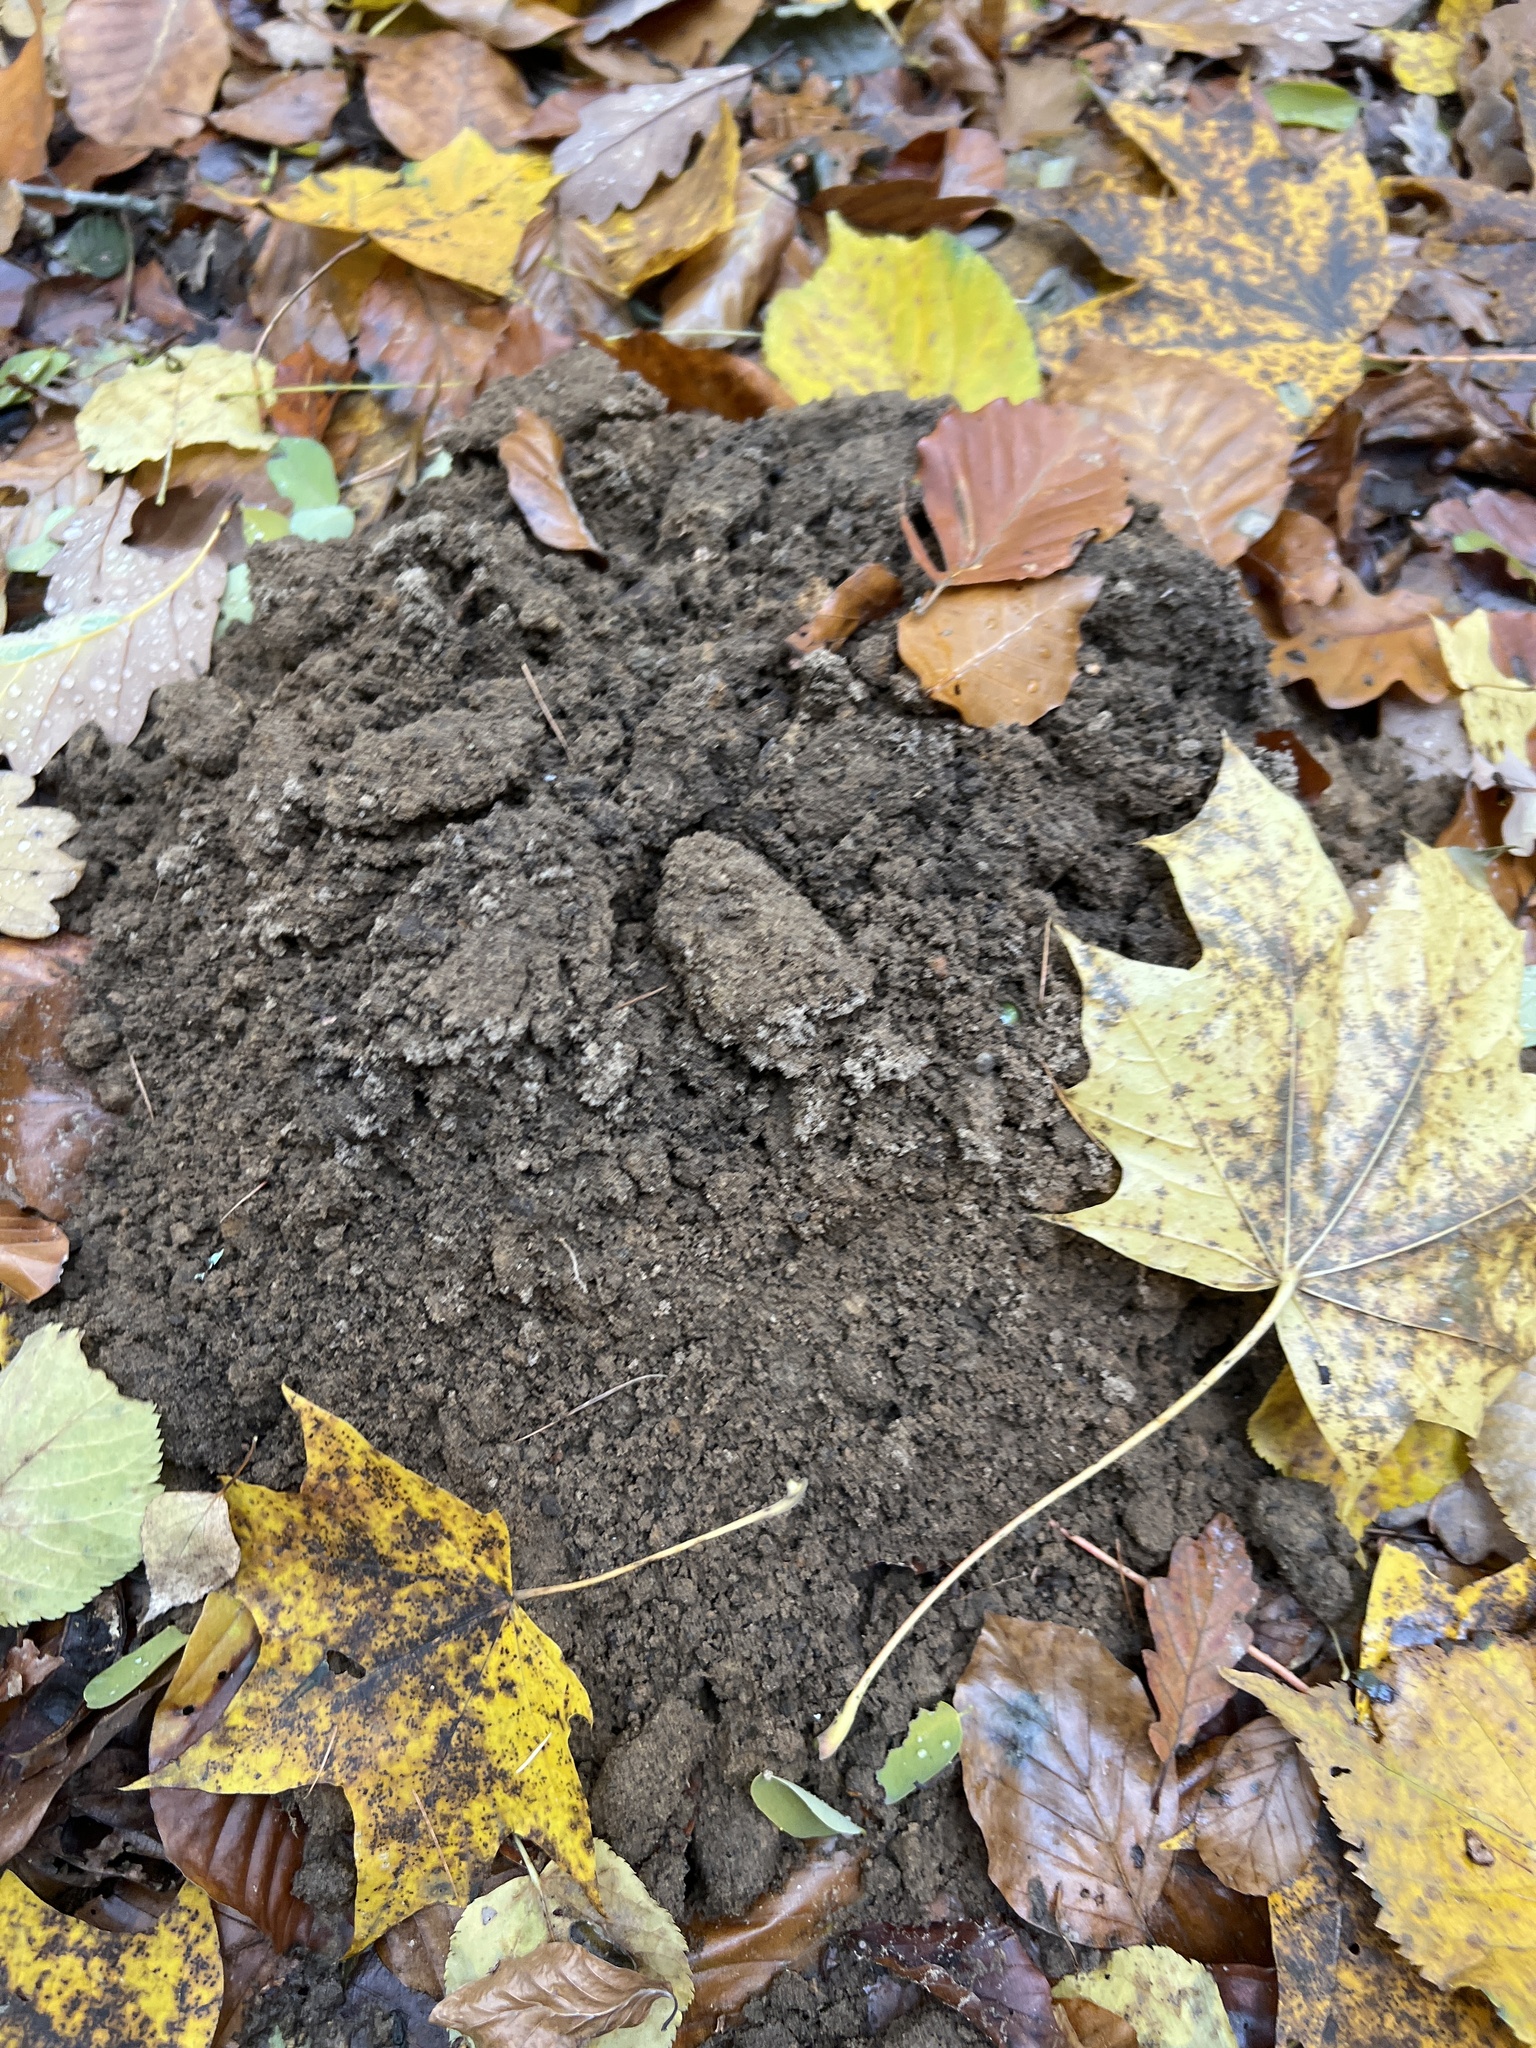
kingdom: Animalia
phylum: Chordata
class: Mammalia
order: Soricomorpha
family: Talpidae
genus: Talpa
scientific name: Talpa europaea
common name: European mole
